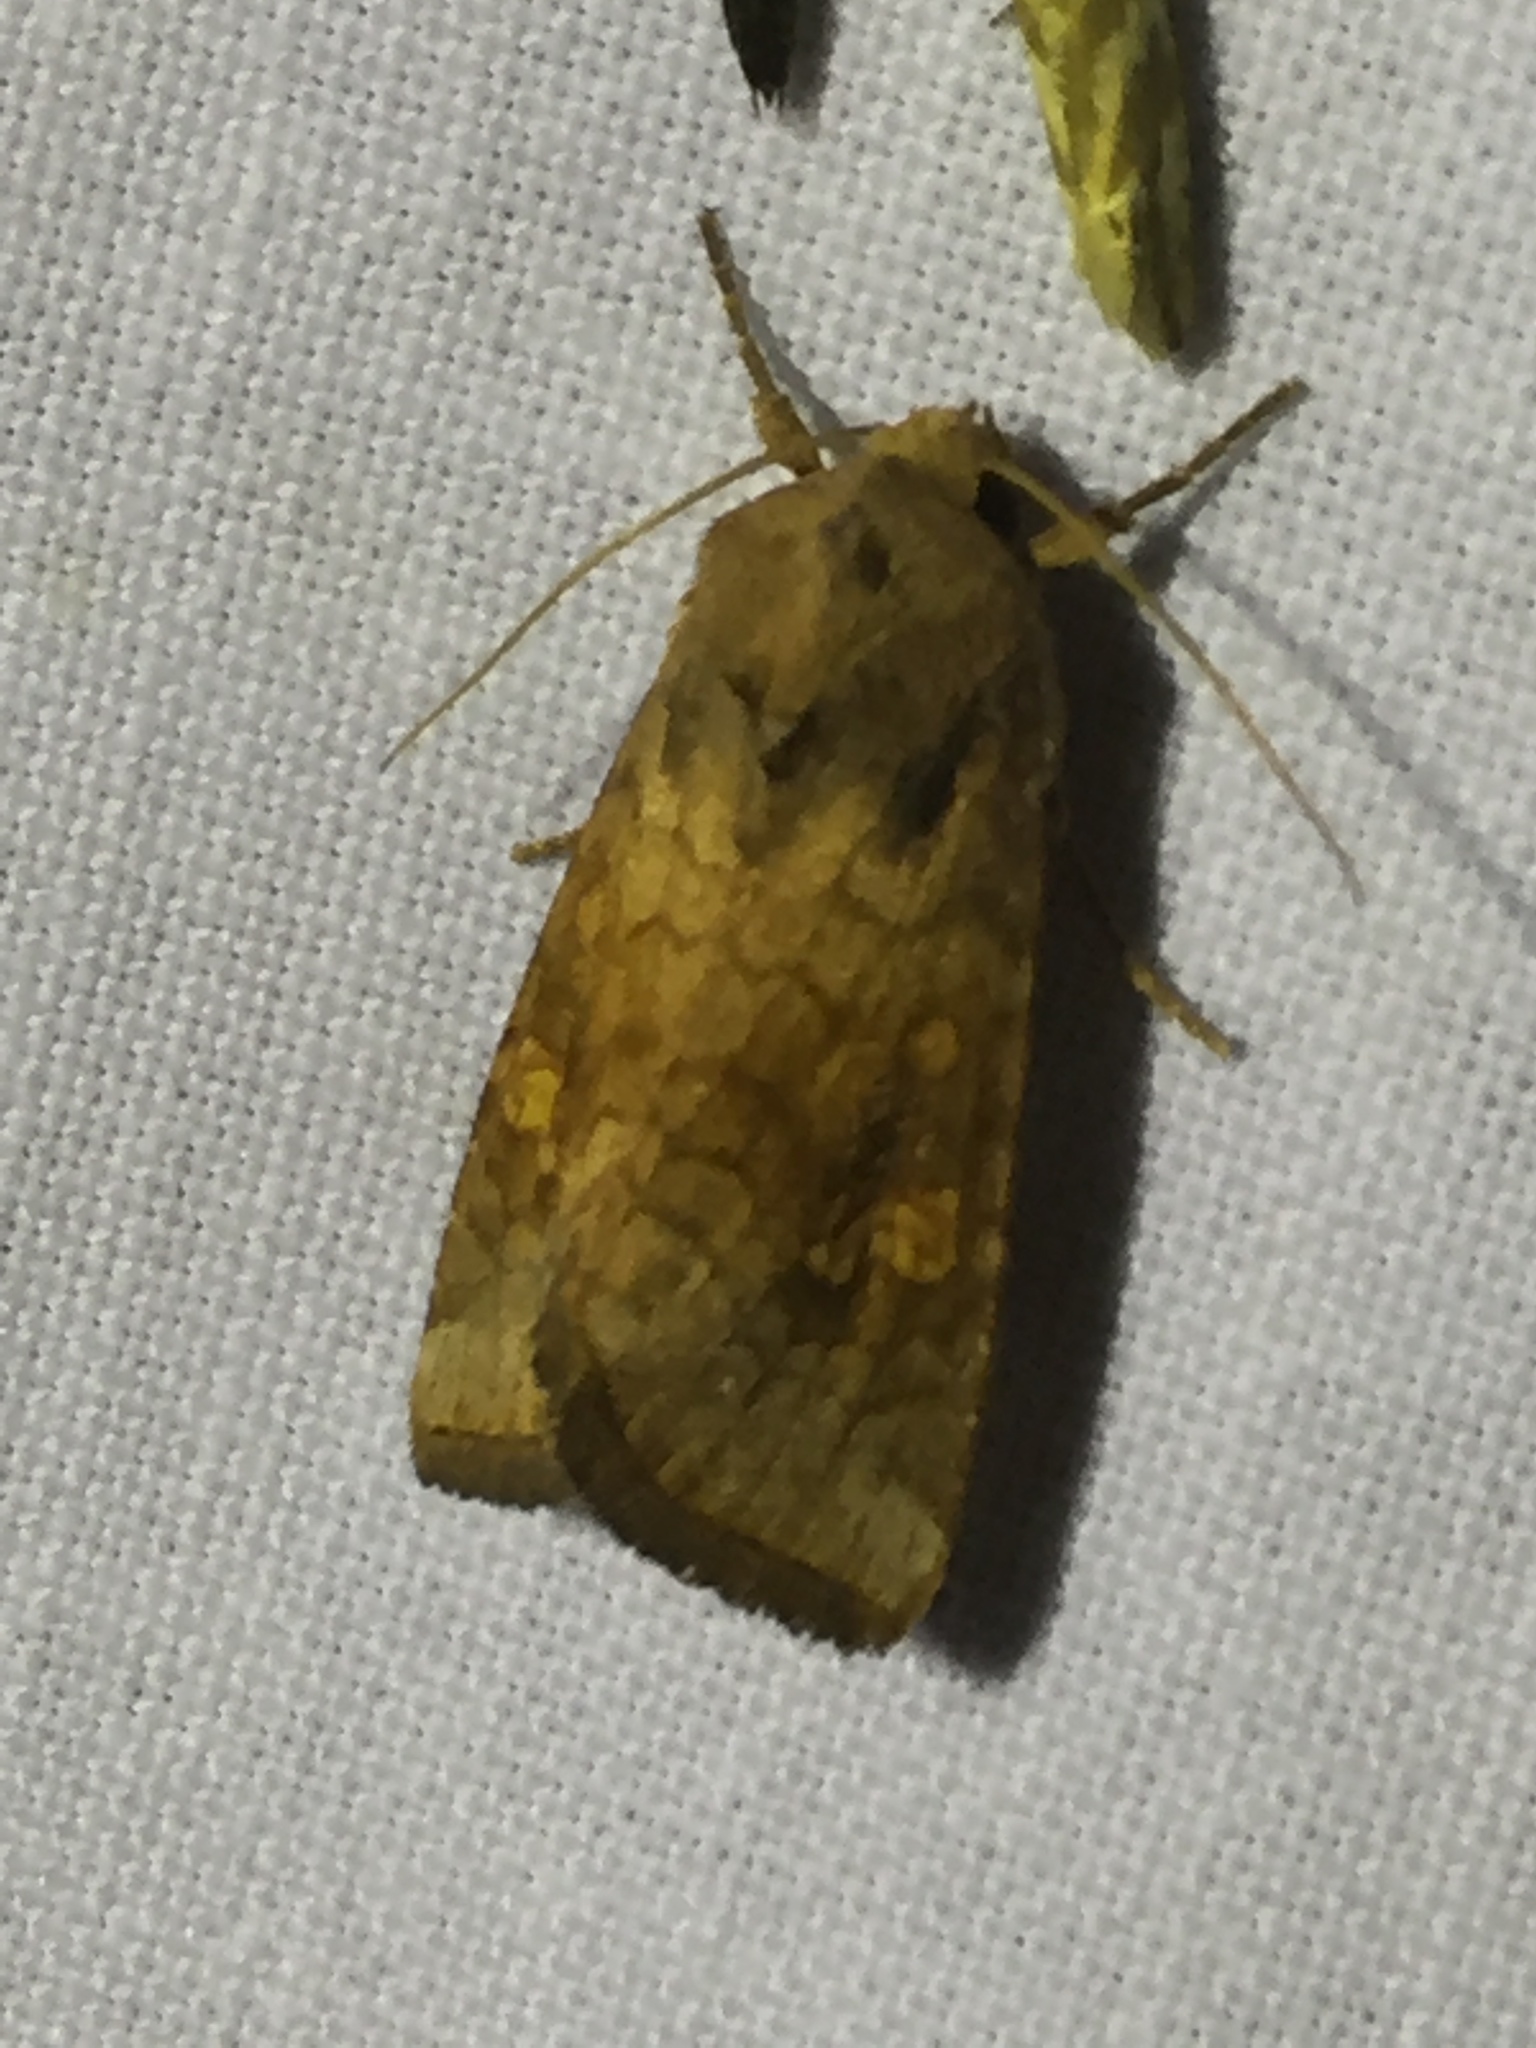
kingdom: Animalia
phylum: Arthropoda
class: Insecta
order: Lepidoptera
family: Noctuidae
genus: Amphipoea
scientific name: Amphipoea
